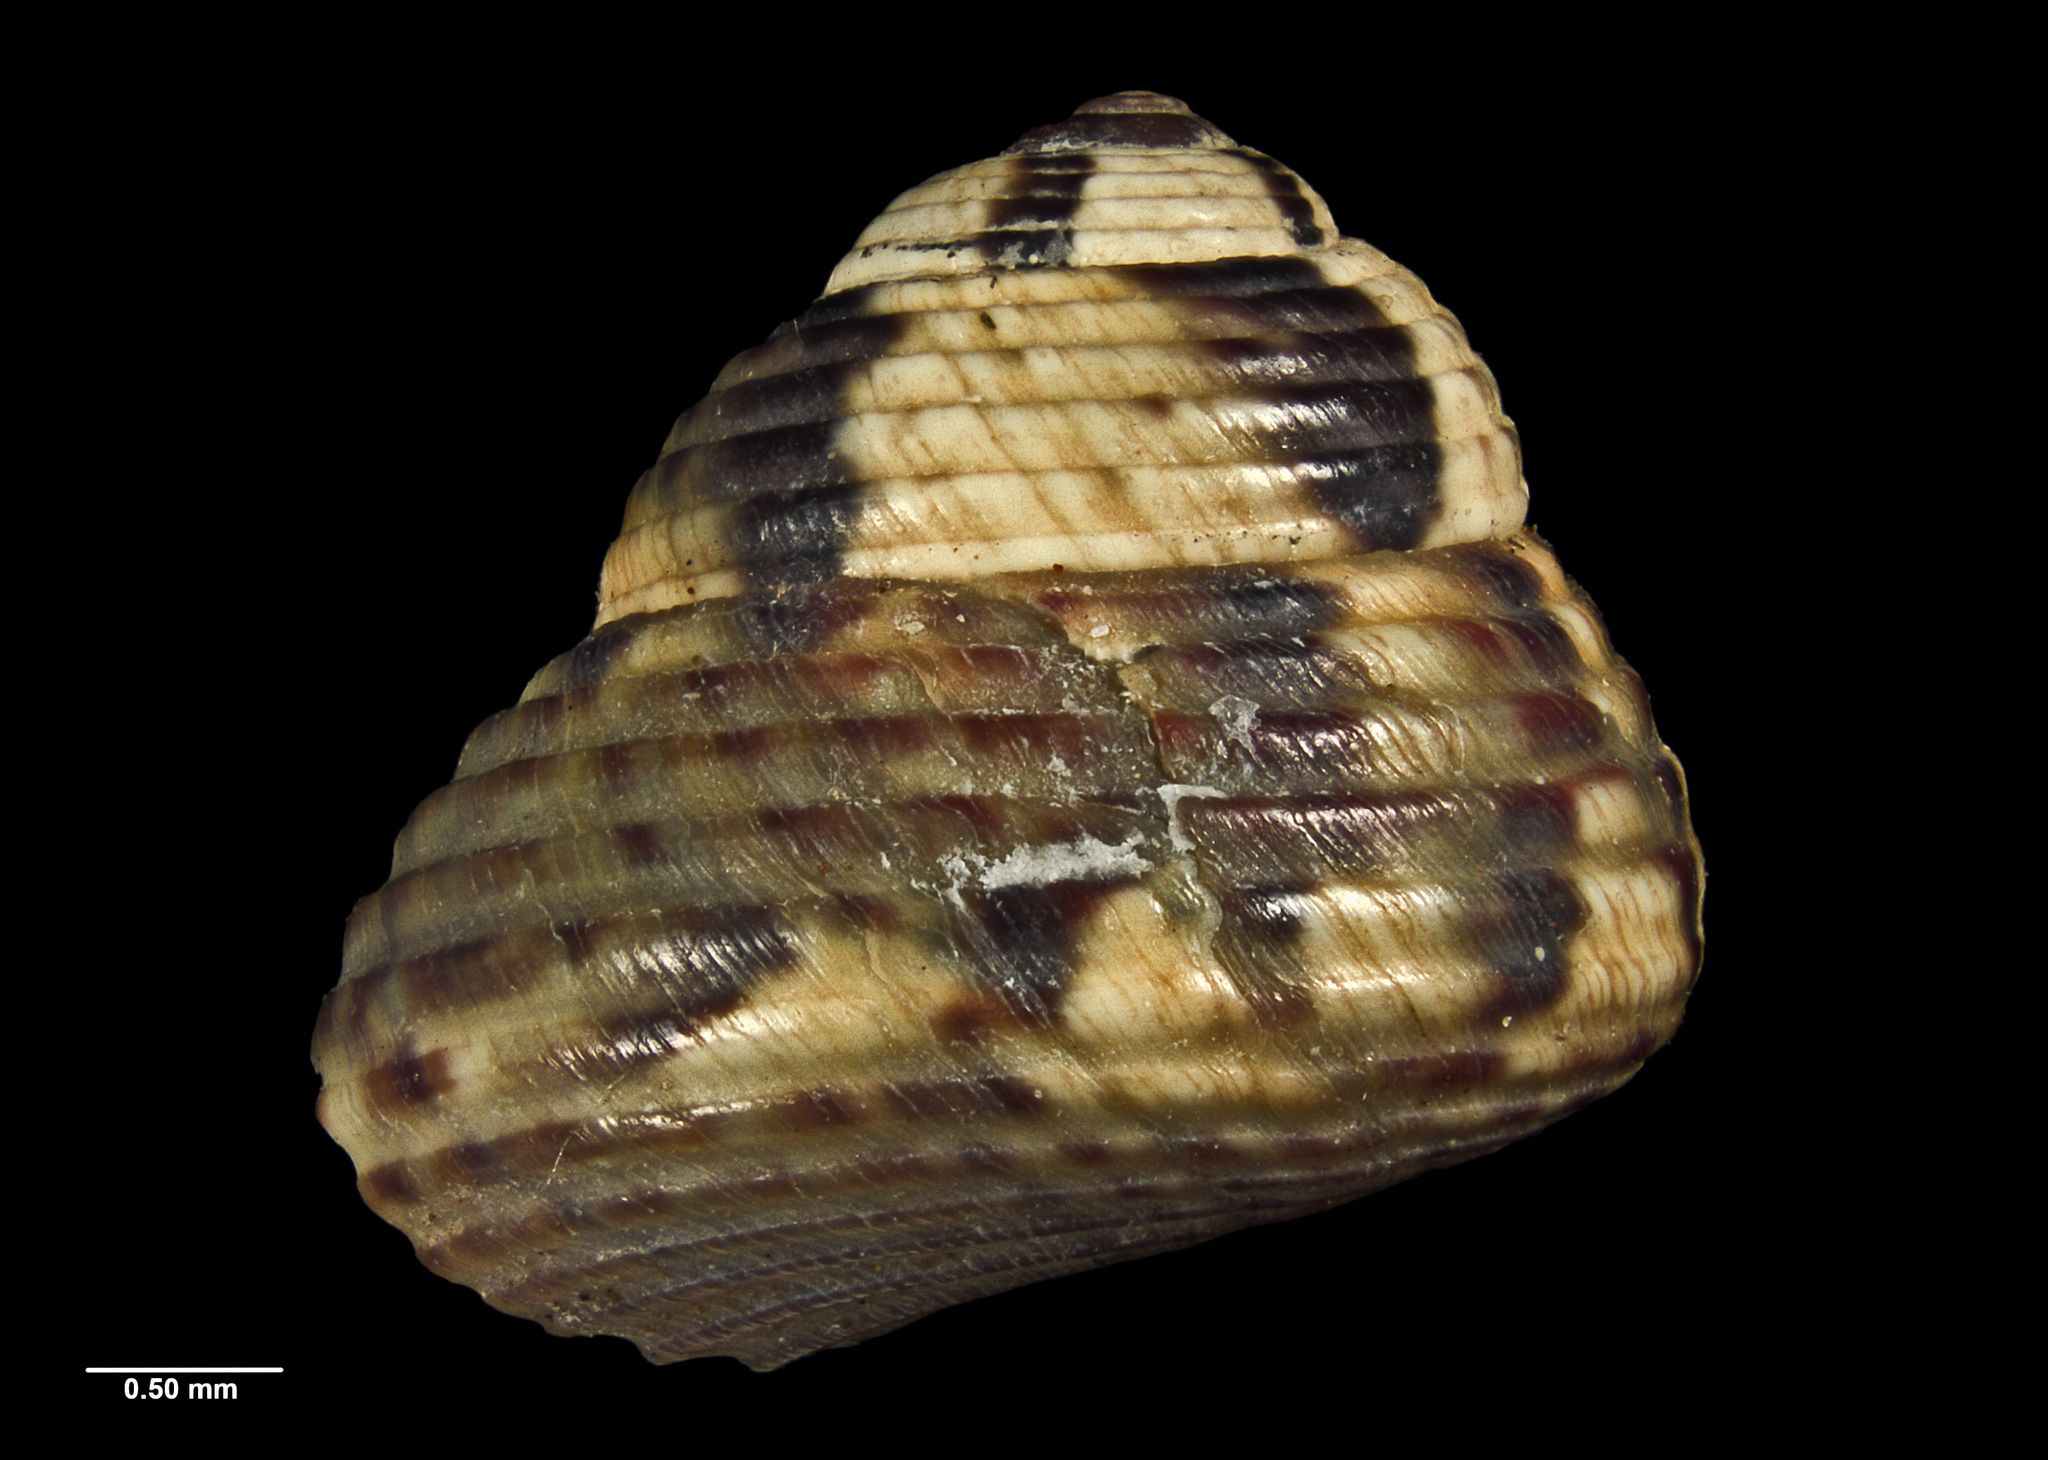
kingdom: Animalia
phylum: Mollusca
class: Gastropoda
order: Trochida
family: Trochidae
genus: Micrelenchus
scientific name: Micrelenchus tenebrosus
